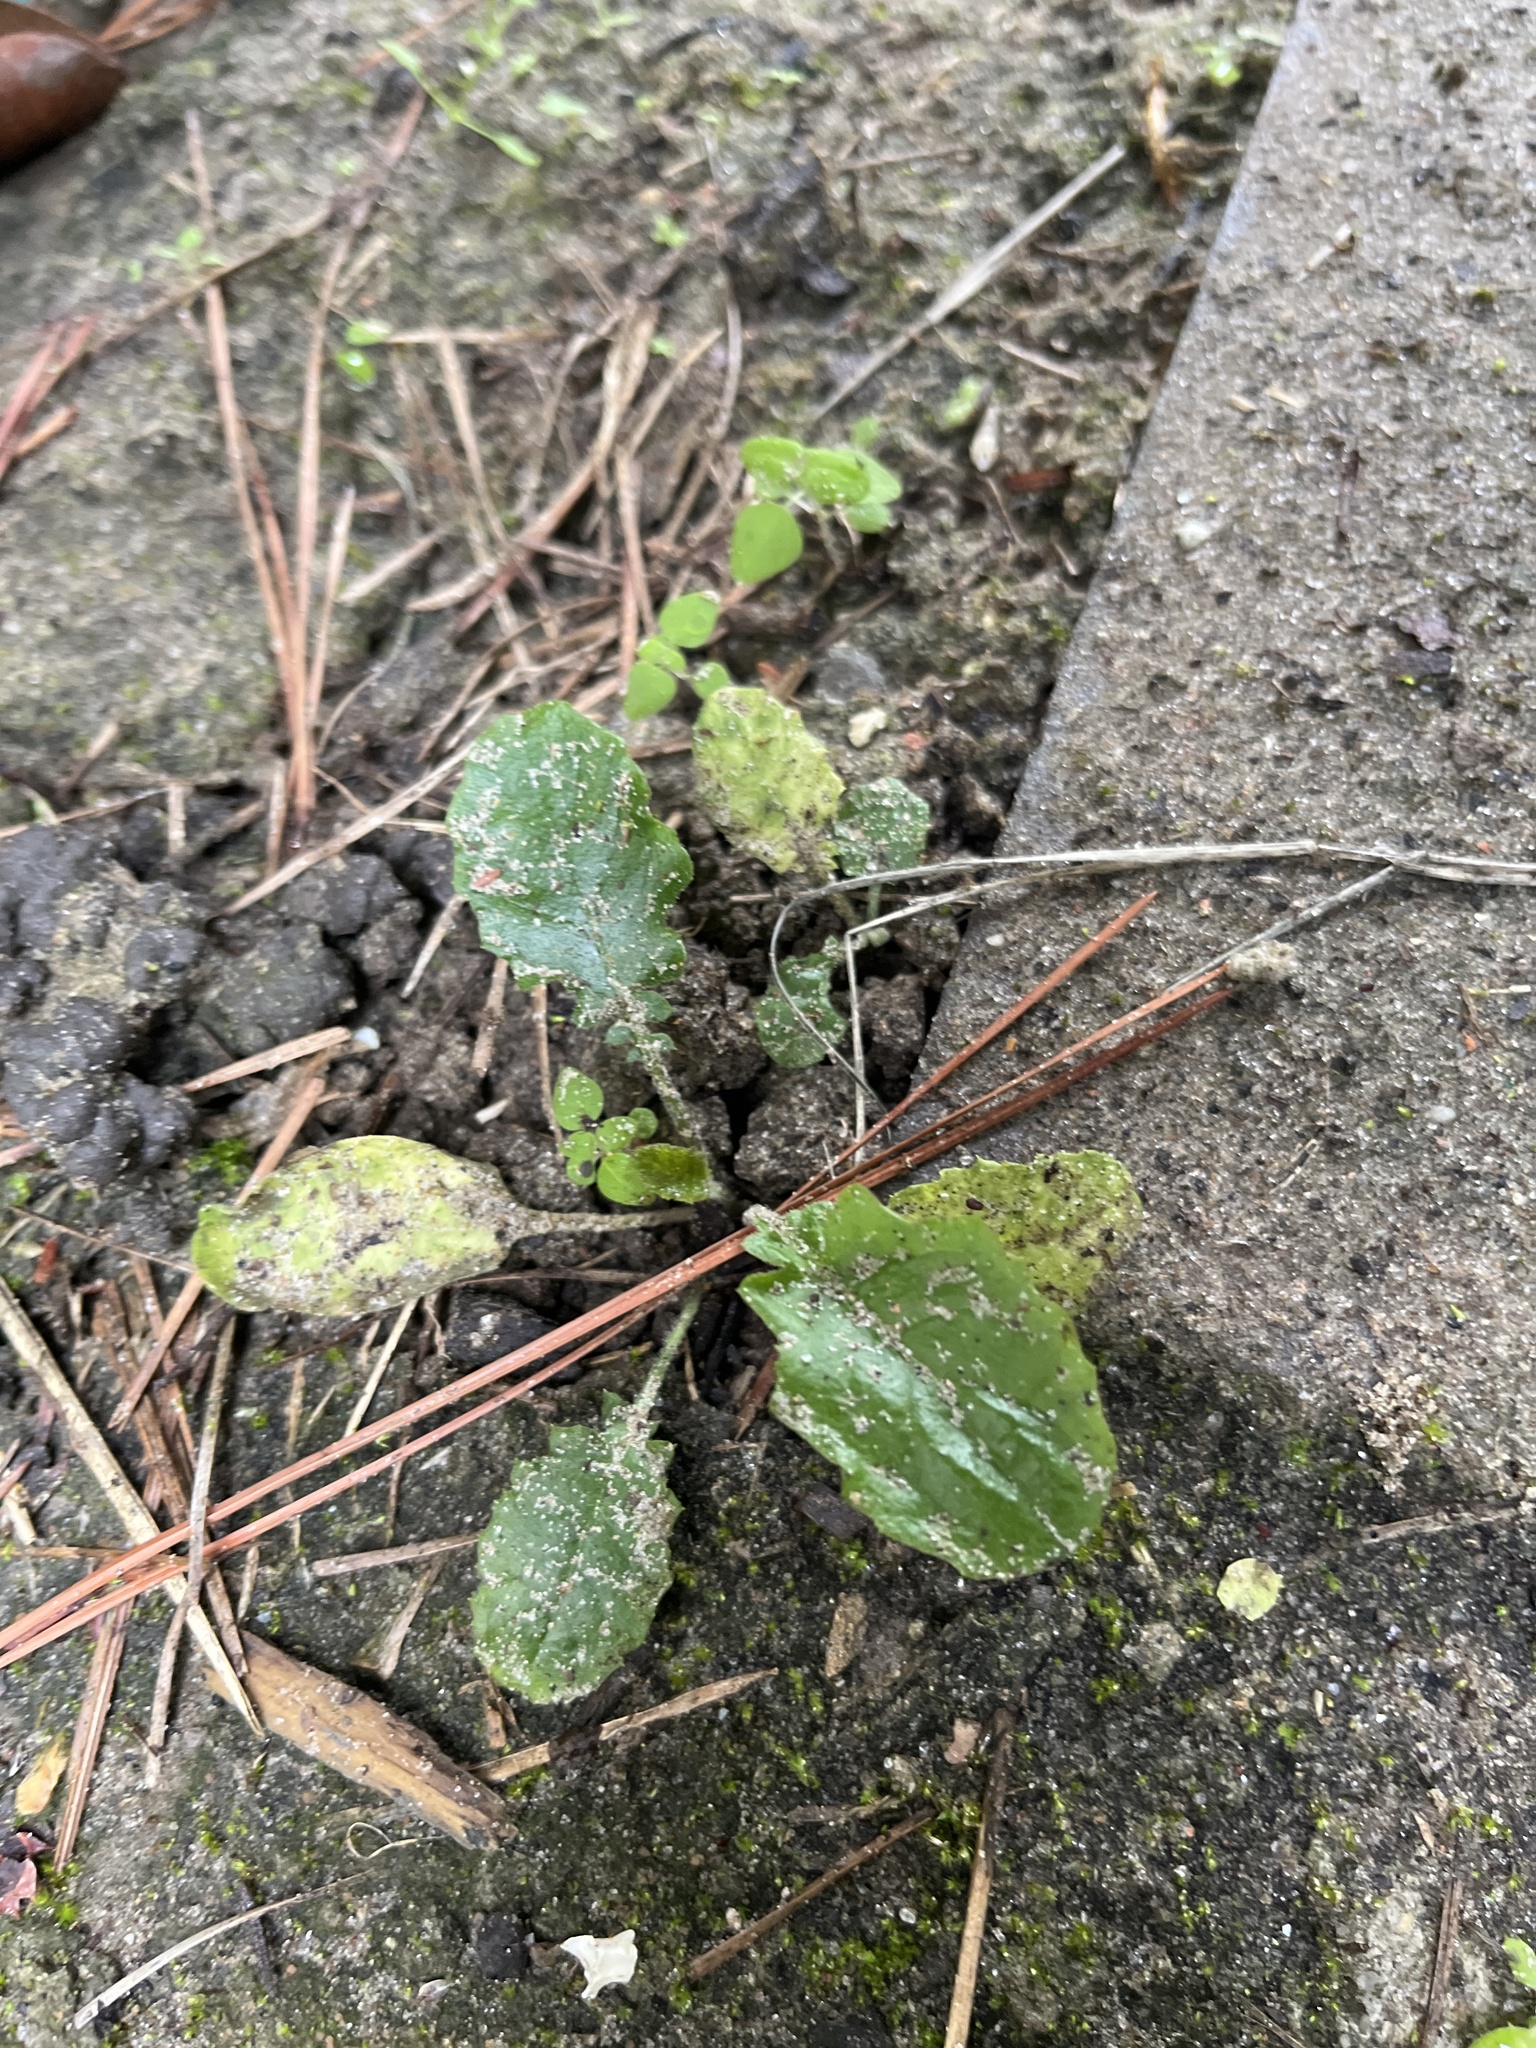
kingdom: Plantae
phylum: Tracheophyta
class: Magnoliopsida
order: Asterales
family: Asteraceae
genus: Youngia
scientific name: Youngia japonica
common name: Oriental false hawksbeard
